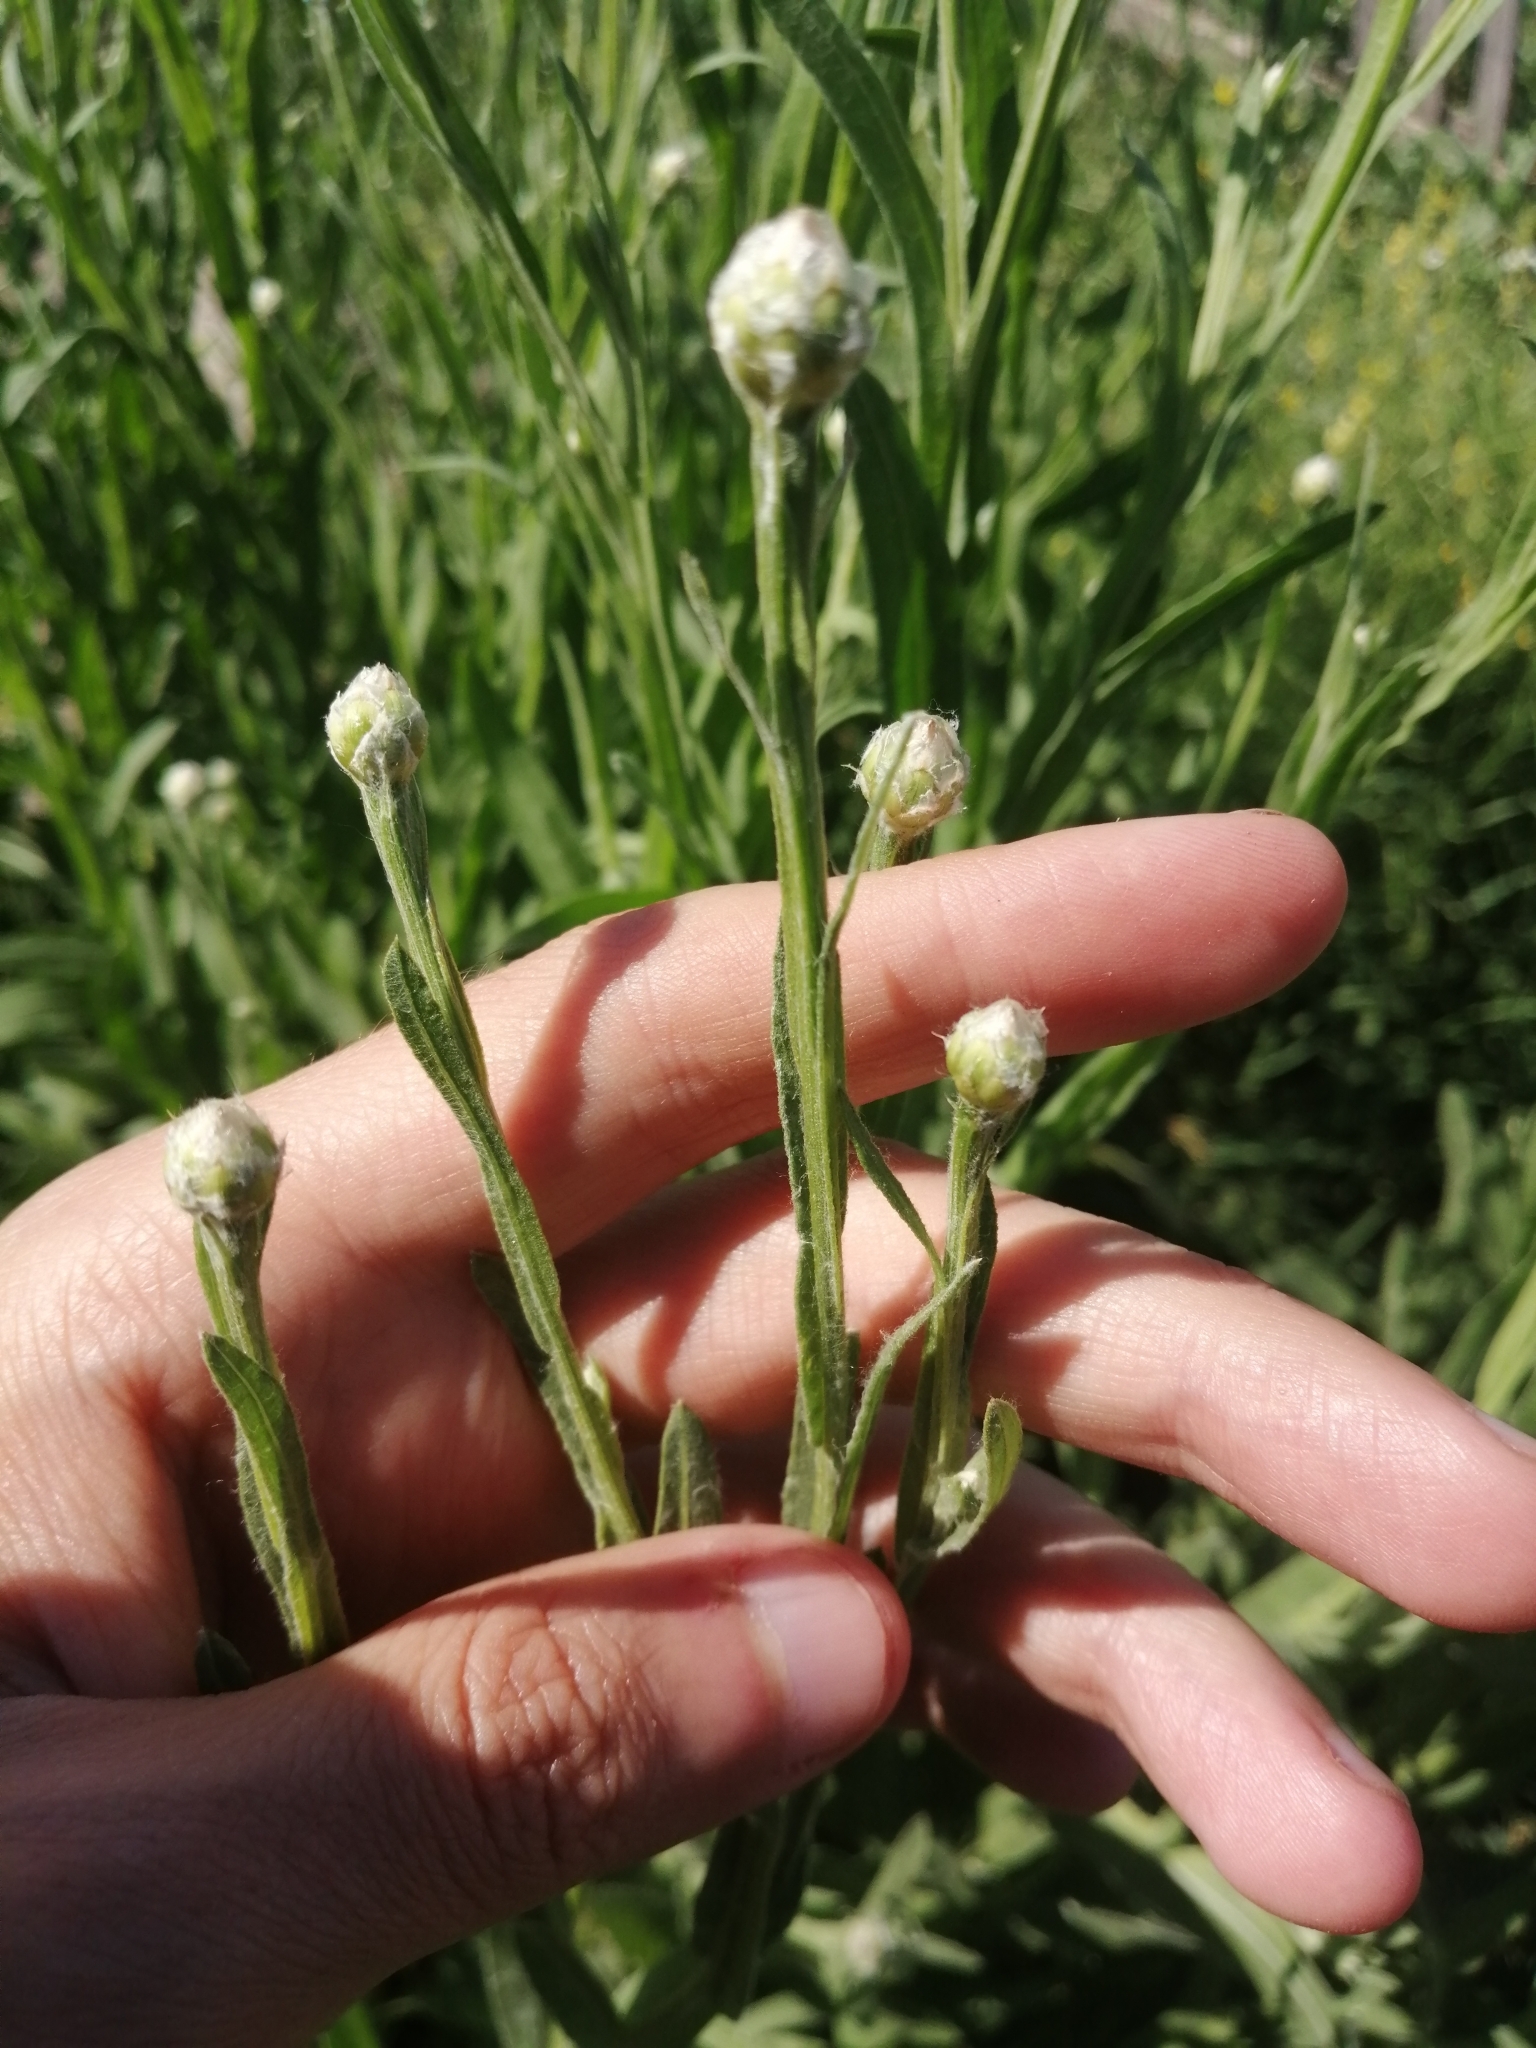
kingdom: Plantae
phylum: Tracheophyta
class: Magnoliopsida
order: Asterales
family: Asteraceae
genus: Centaurea
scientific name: Centaurea glastifolia
